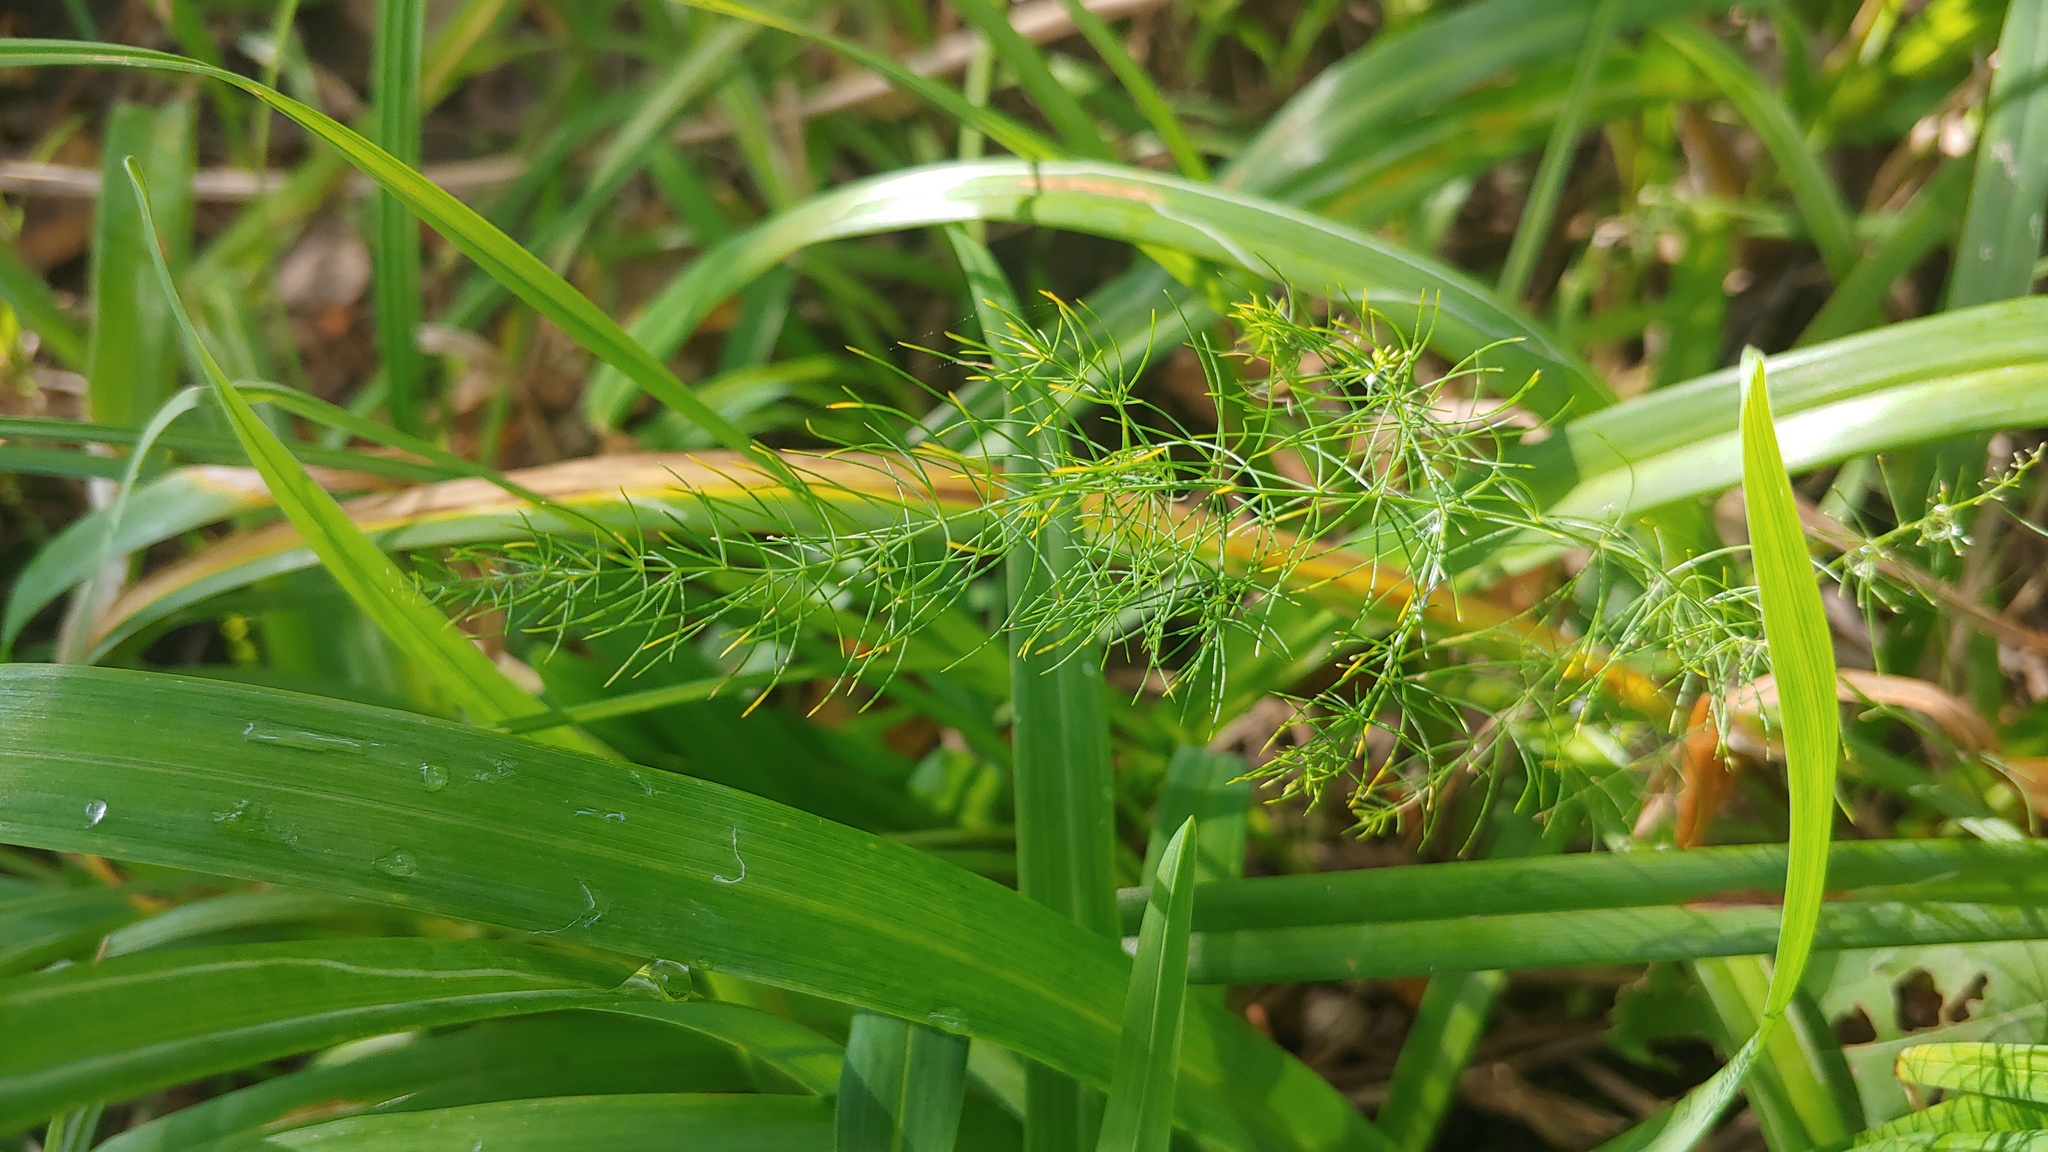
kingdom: Plantae
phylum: Tracheophyta
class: Liliopsida
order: Asparagales
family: Asparagaceae
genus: Asparagus
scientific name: Asparagus officinalis
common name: Garden asparagus
